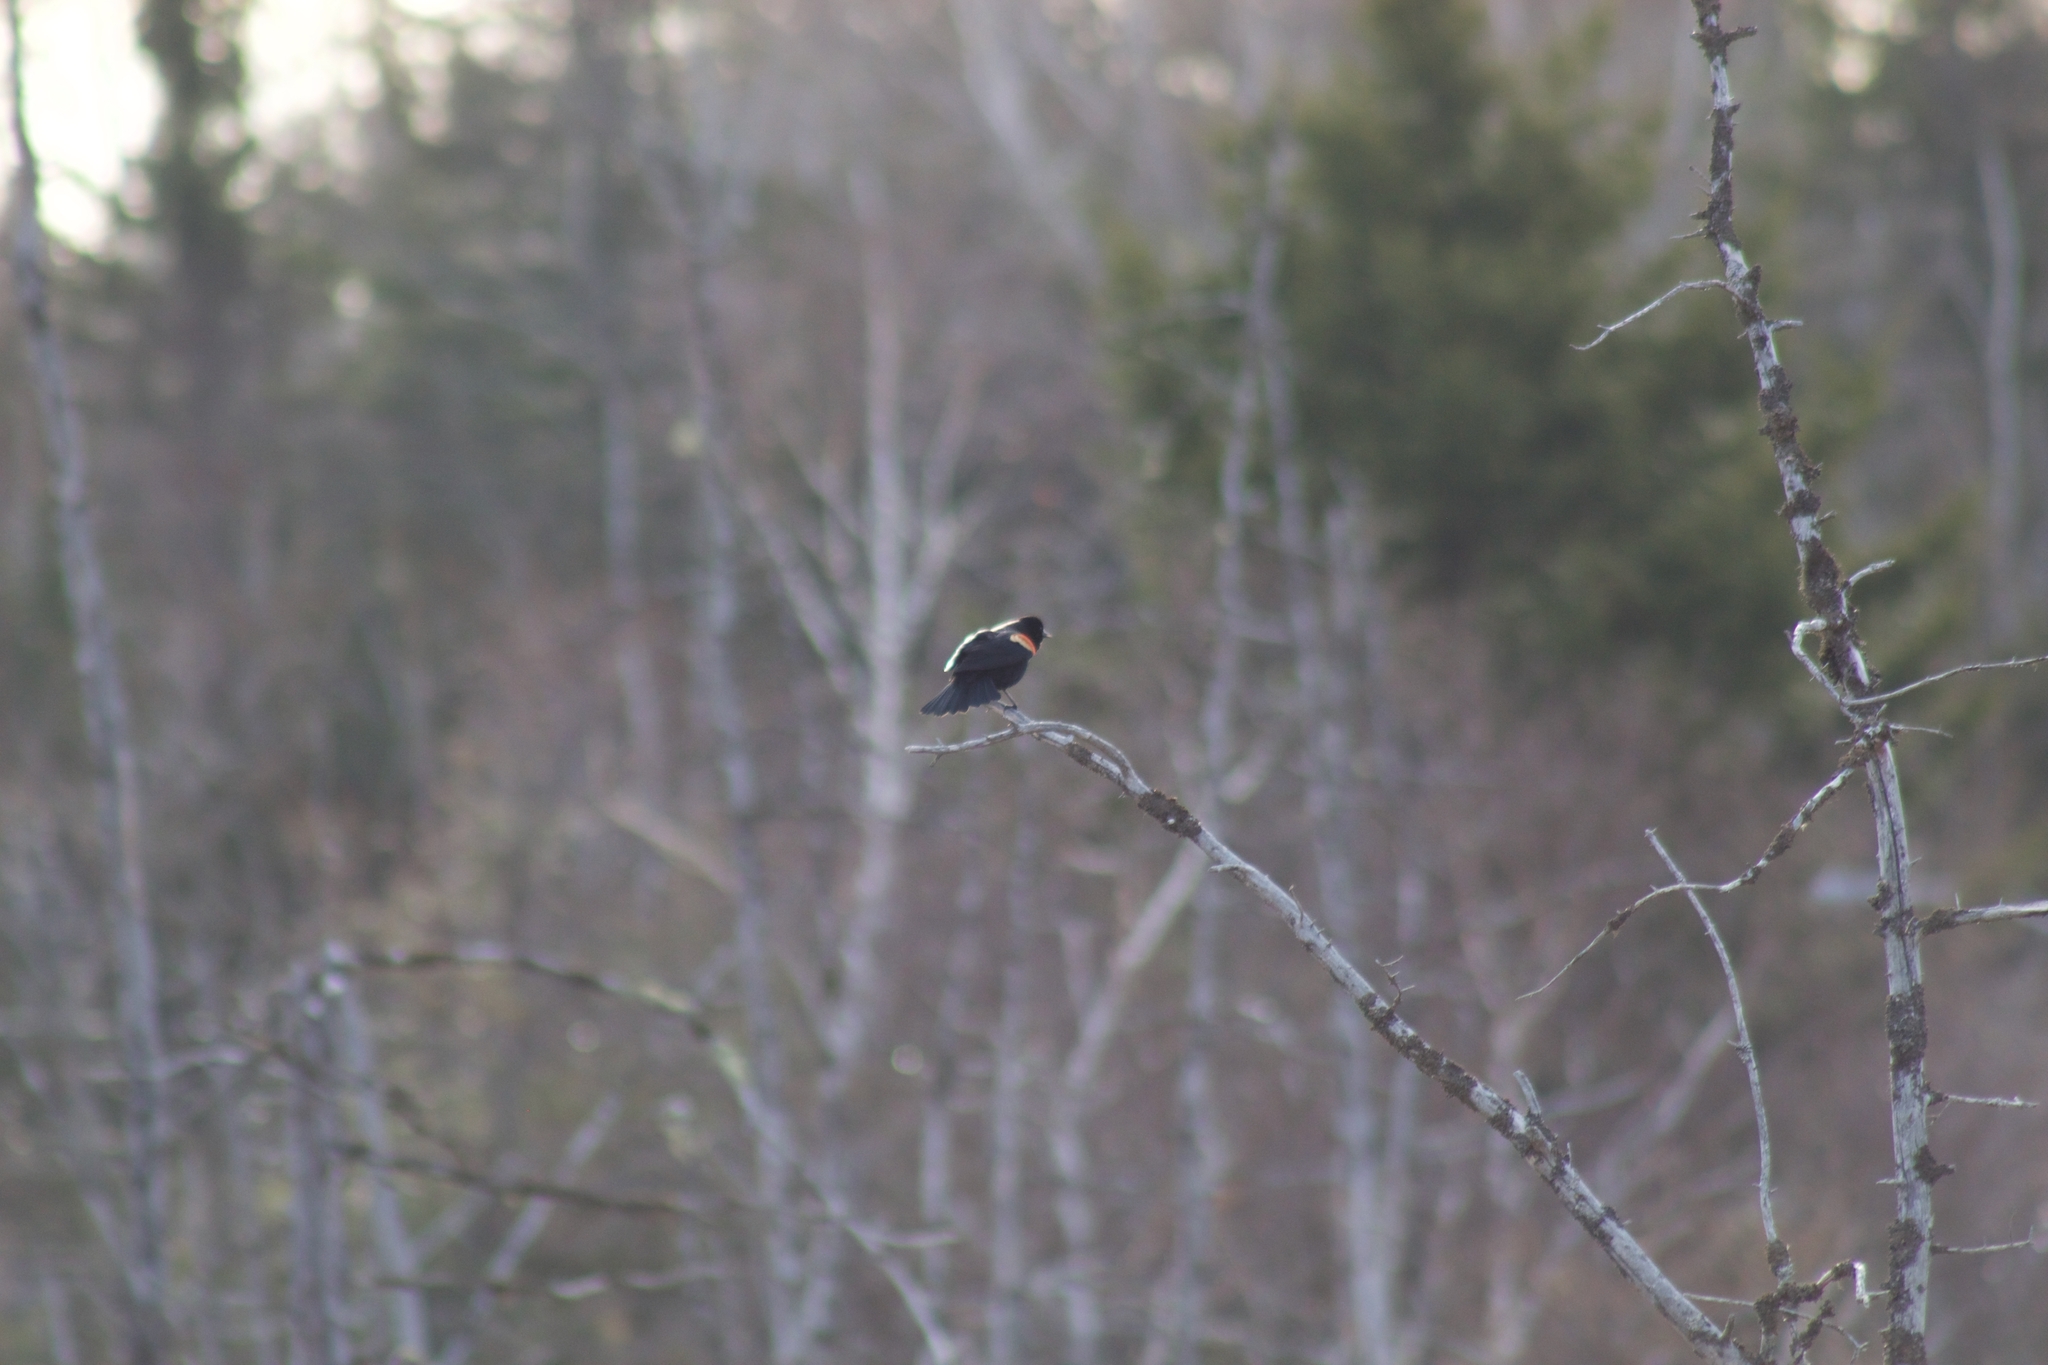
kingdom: Animalia
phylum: Chordata
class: Aves
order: Passeriformes
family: Icteridae
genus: Agelaius
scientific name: Agelaius phoeniceus
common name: Red-winged blackbird
